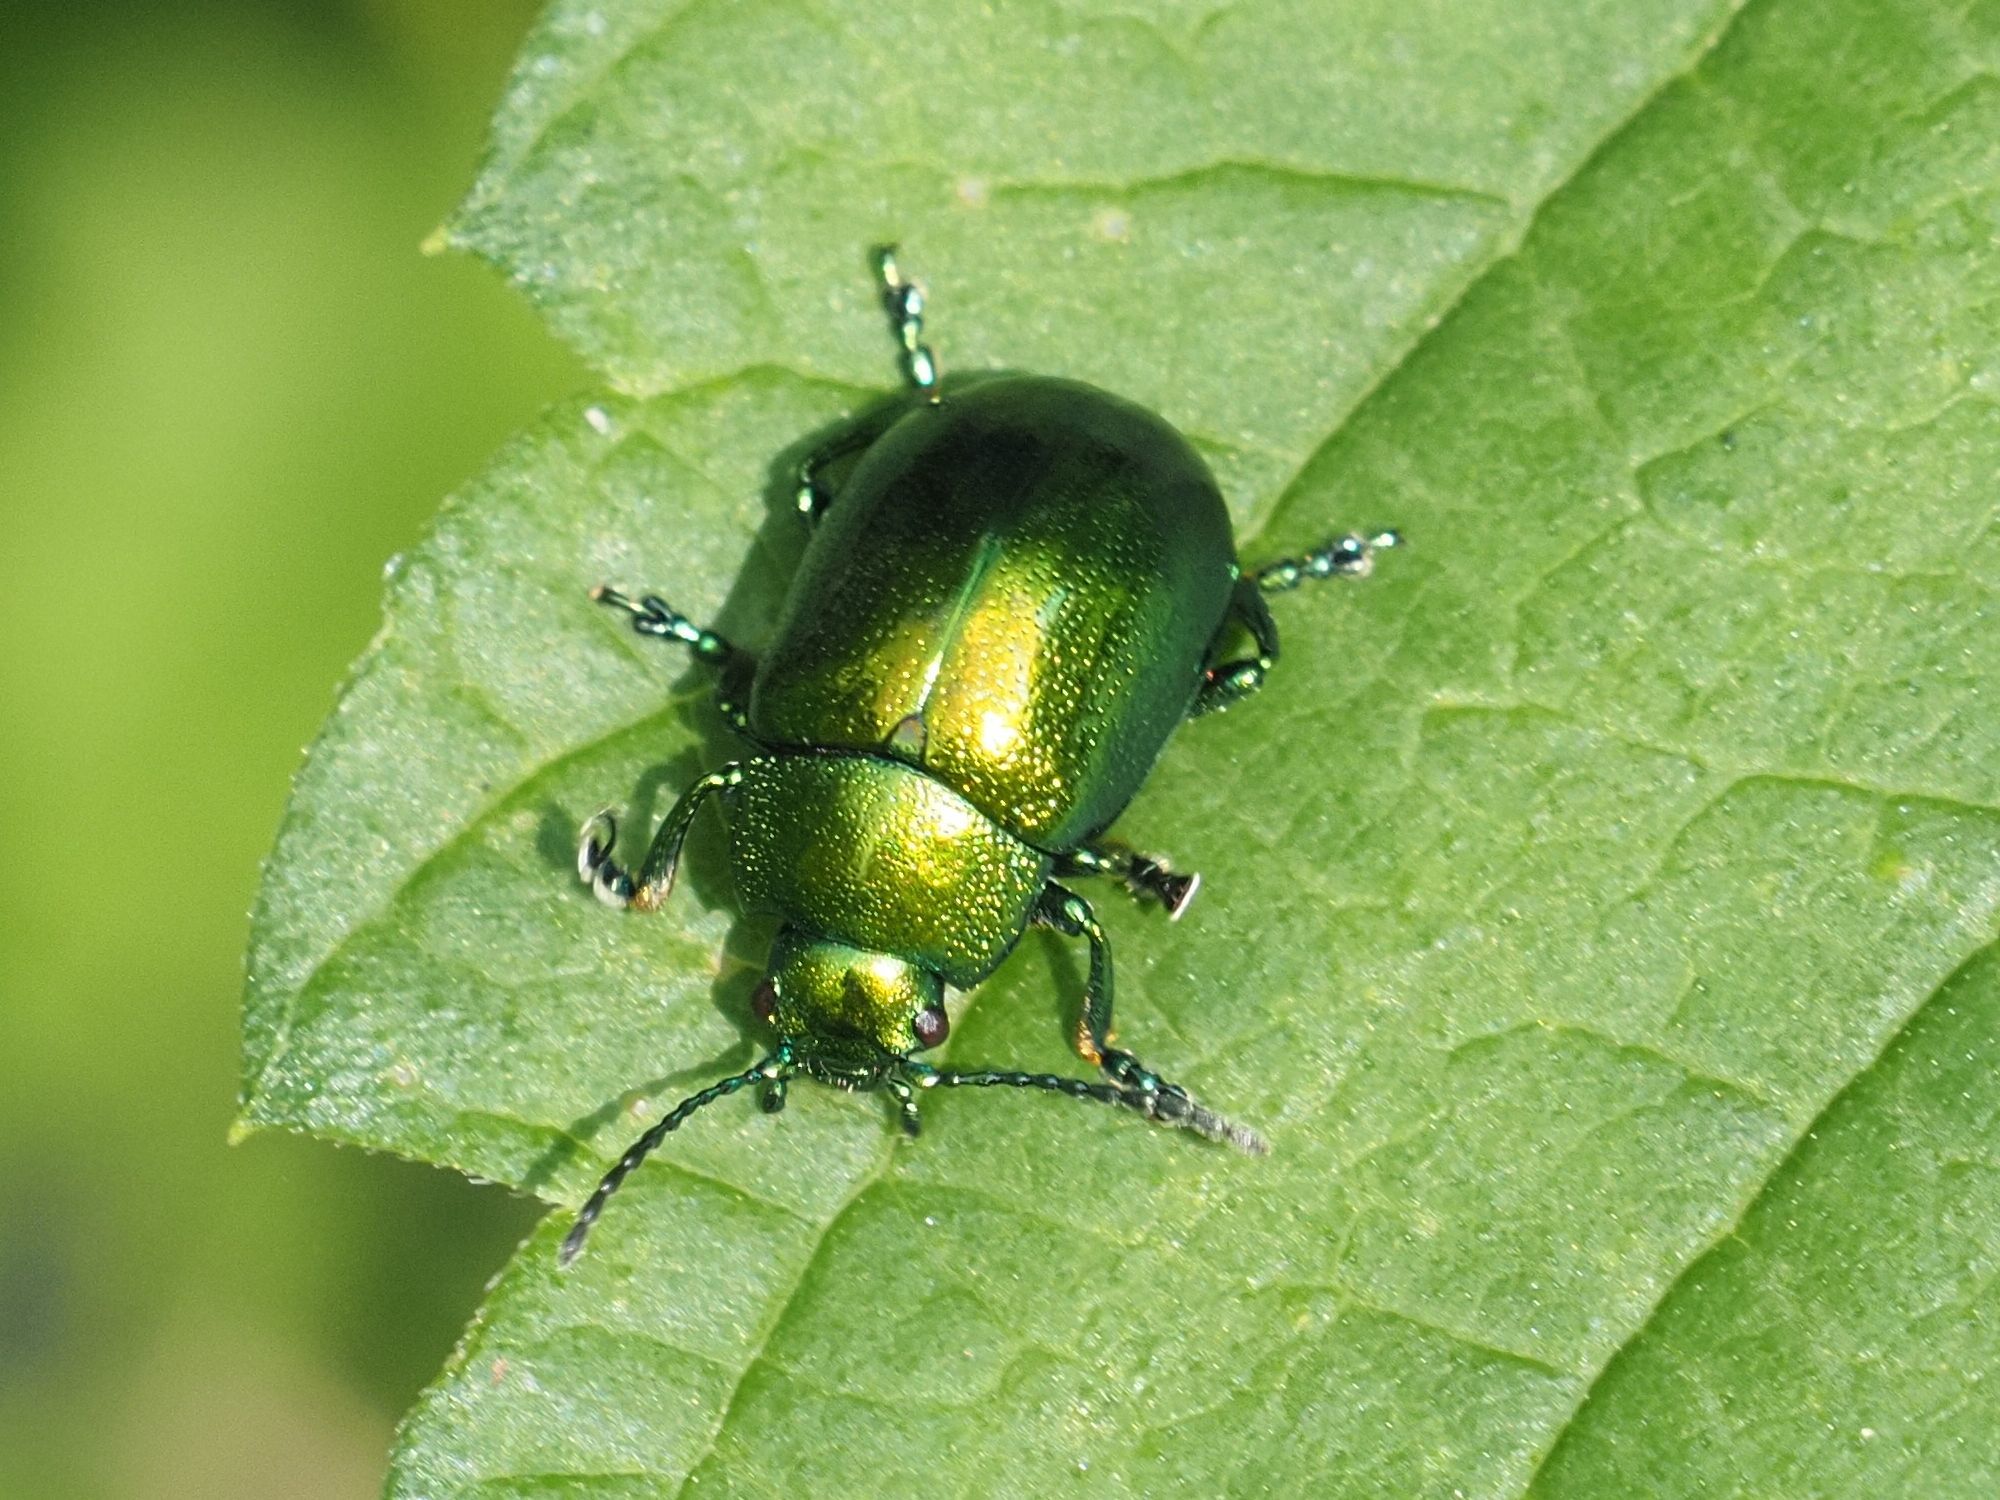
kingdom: Animalia
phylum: Arthropoda
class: Insecta
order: Coleoptera
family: Chrysomelidae
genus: Chrysolina
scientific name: Chrysolina herbacea
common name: Mint leaf beatle
